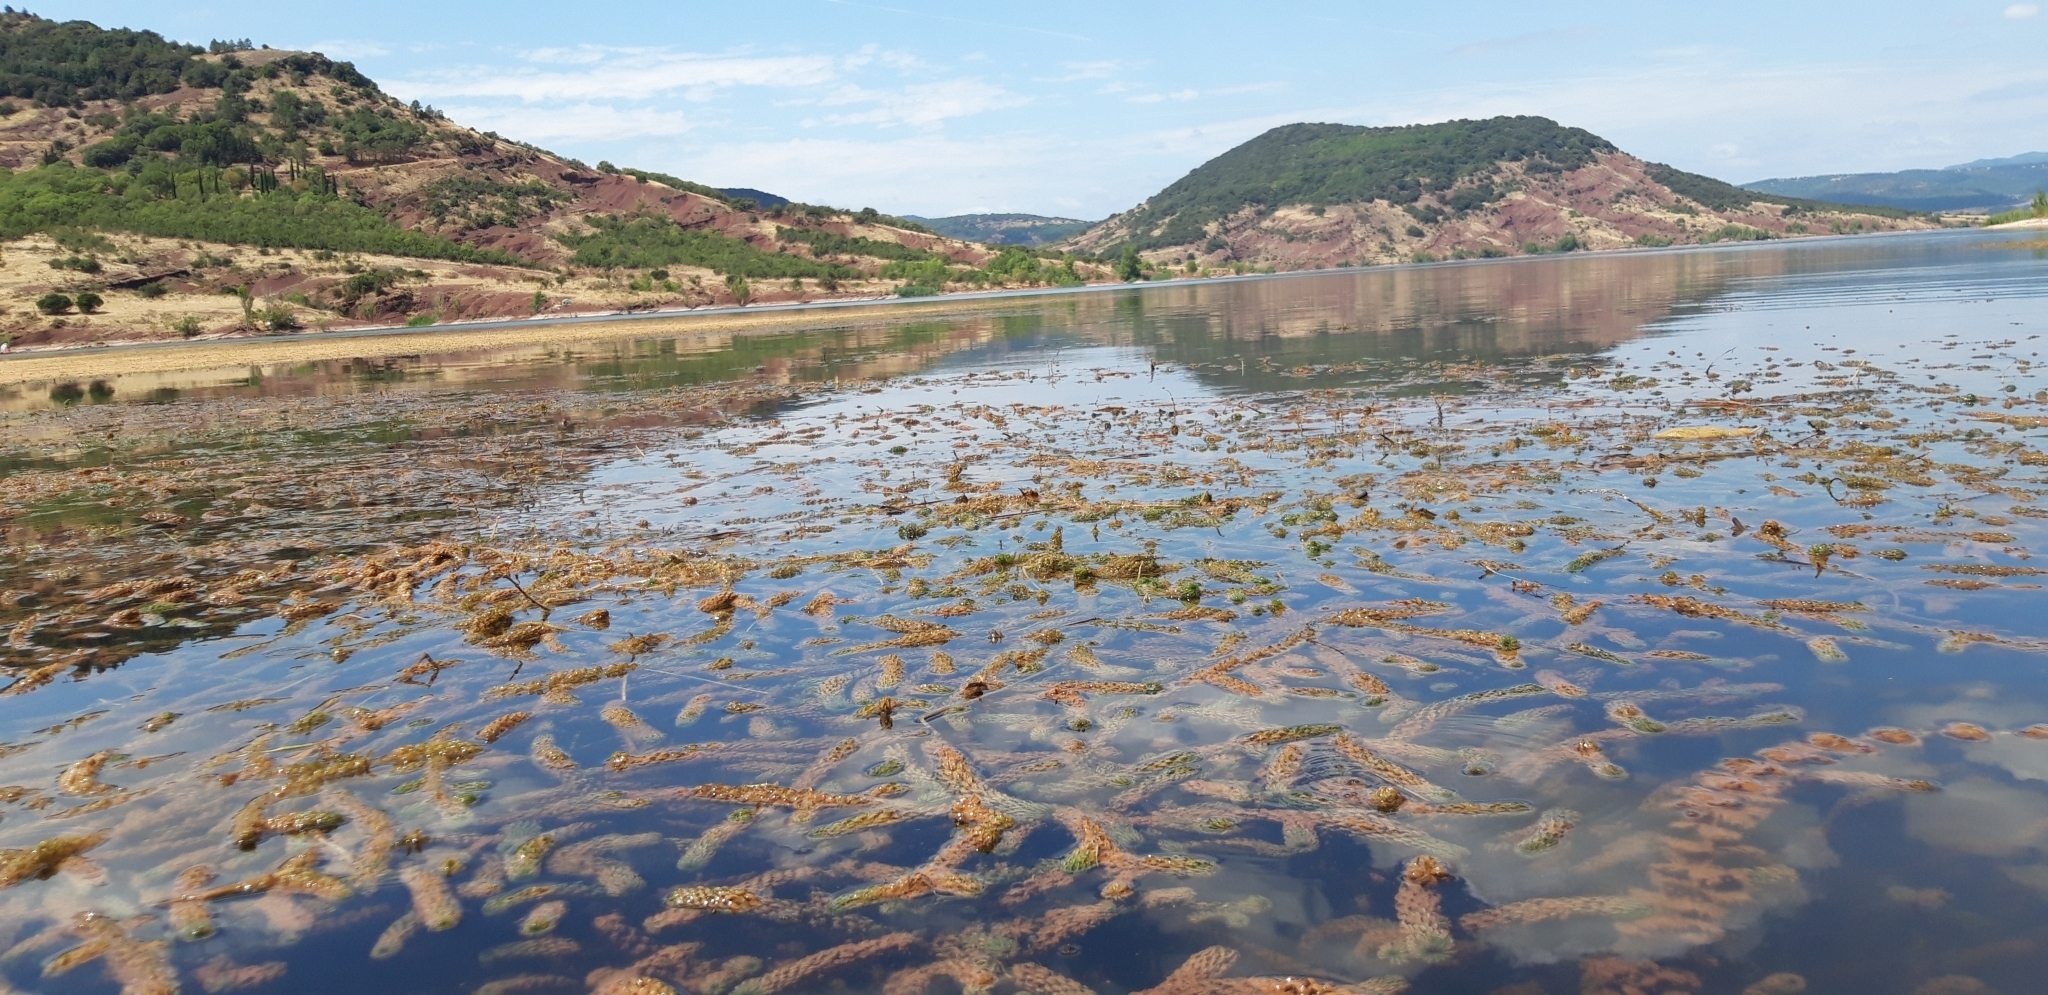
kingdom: Plantae
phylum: Tracheophyta
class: Liliopsida
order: Alismatales
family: Hydrocharitaceae
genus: Lagarosiphon
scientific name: Lagarosiphon major
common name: Curly waterweed
